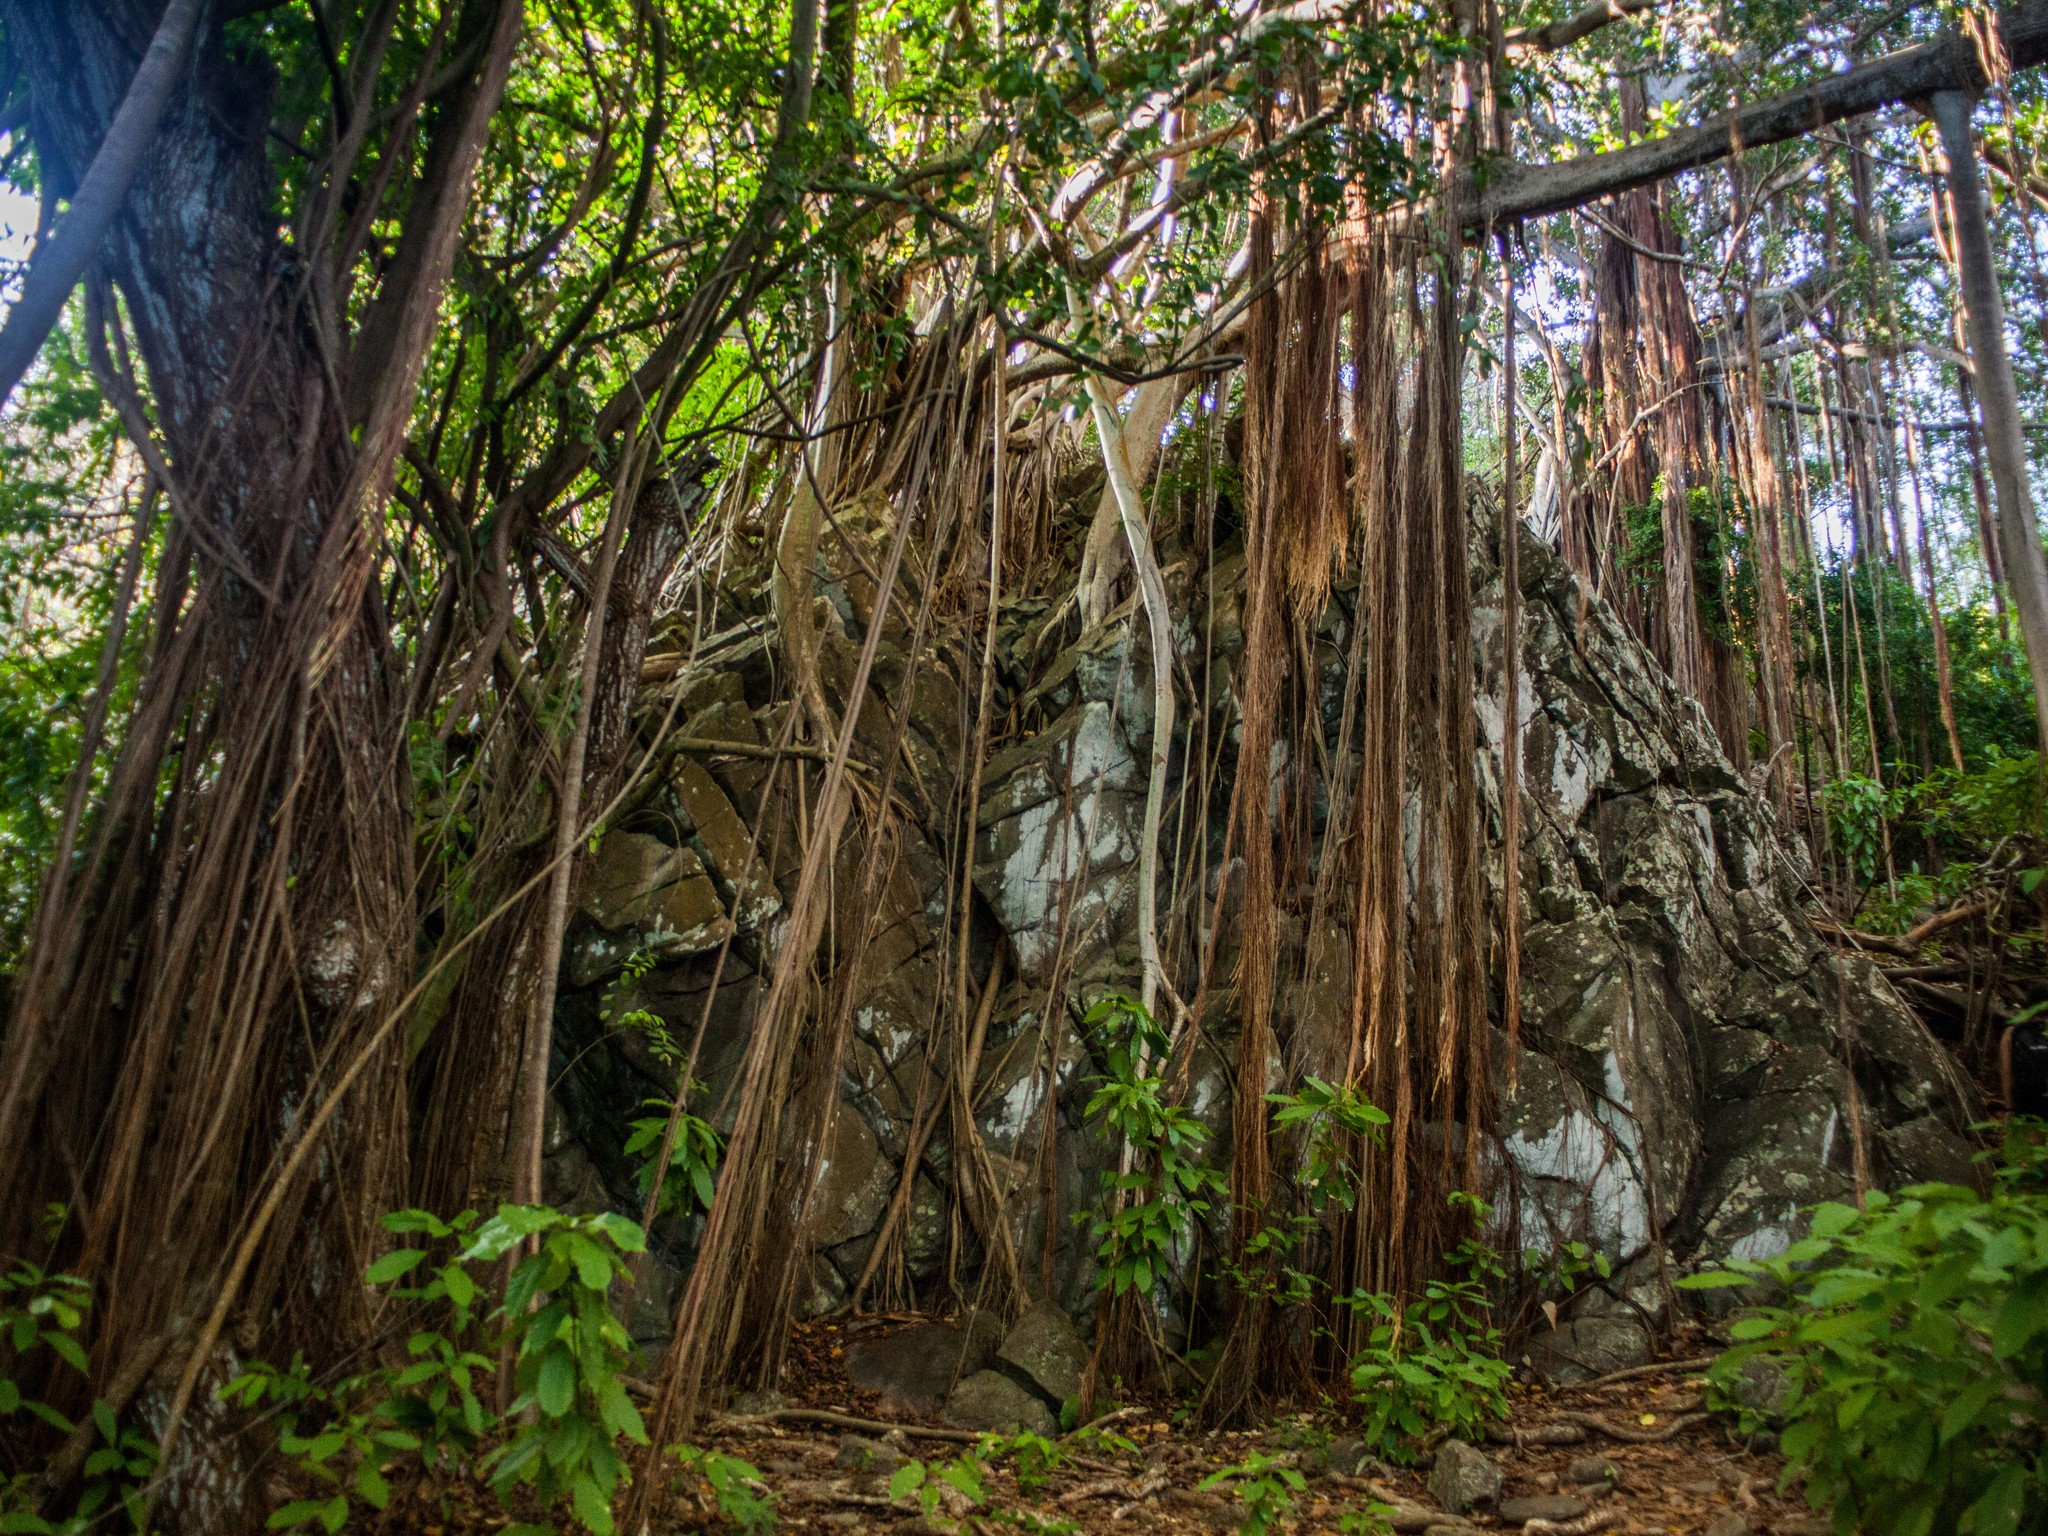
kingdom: Plantae
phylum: Tracheophyta
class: Magnoliopsida
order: Rosales
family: Moraceae
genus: Ficus
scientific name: Ficus cyclophylla
